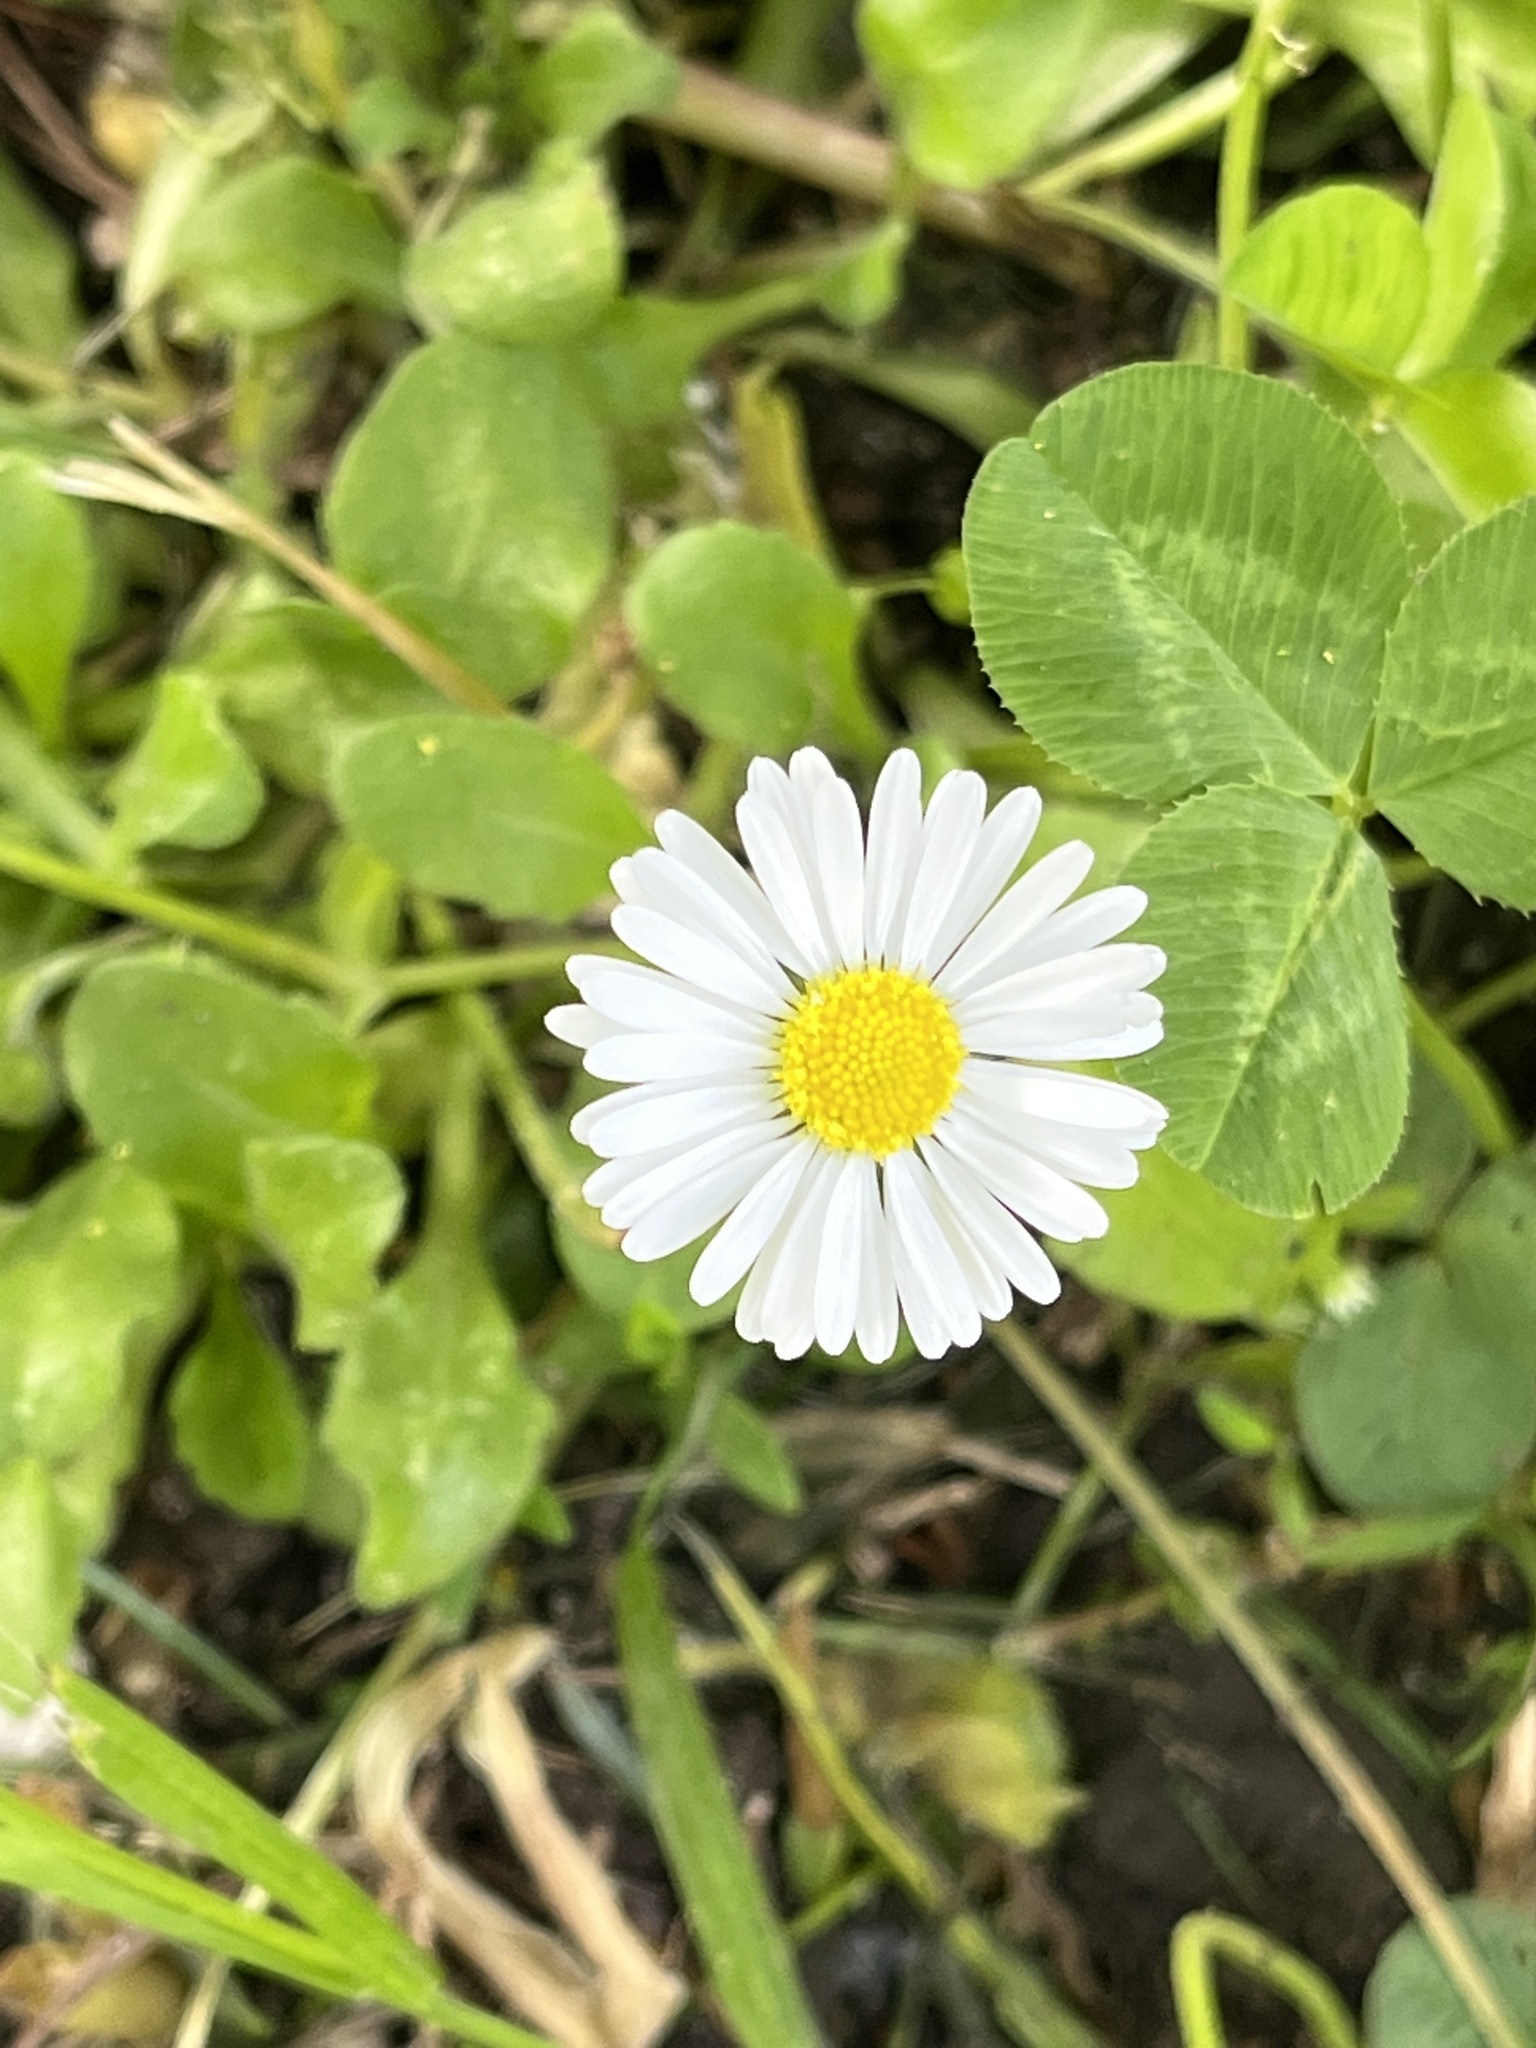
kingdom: Plantae
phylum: Tracheophyta
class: Magnoliopsida
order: Asterales
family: Asteraceae
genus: Bellis
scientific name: Bellis perennis
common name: Lawndaisy
